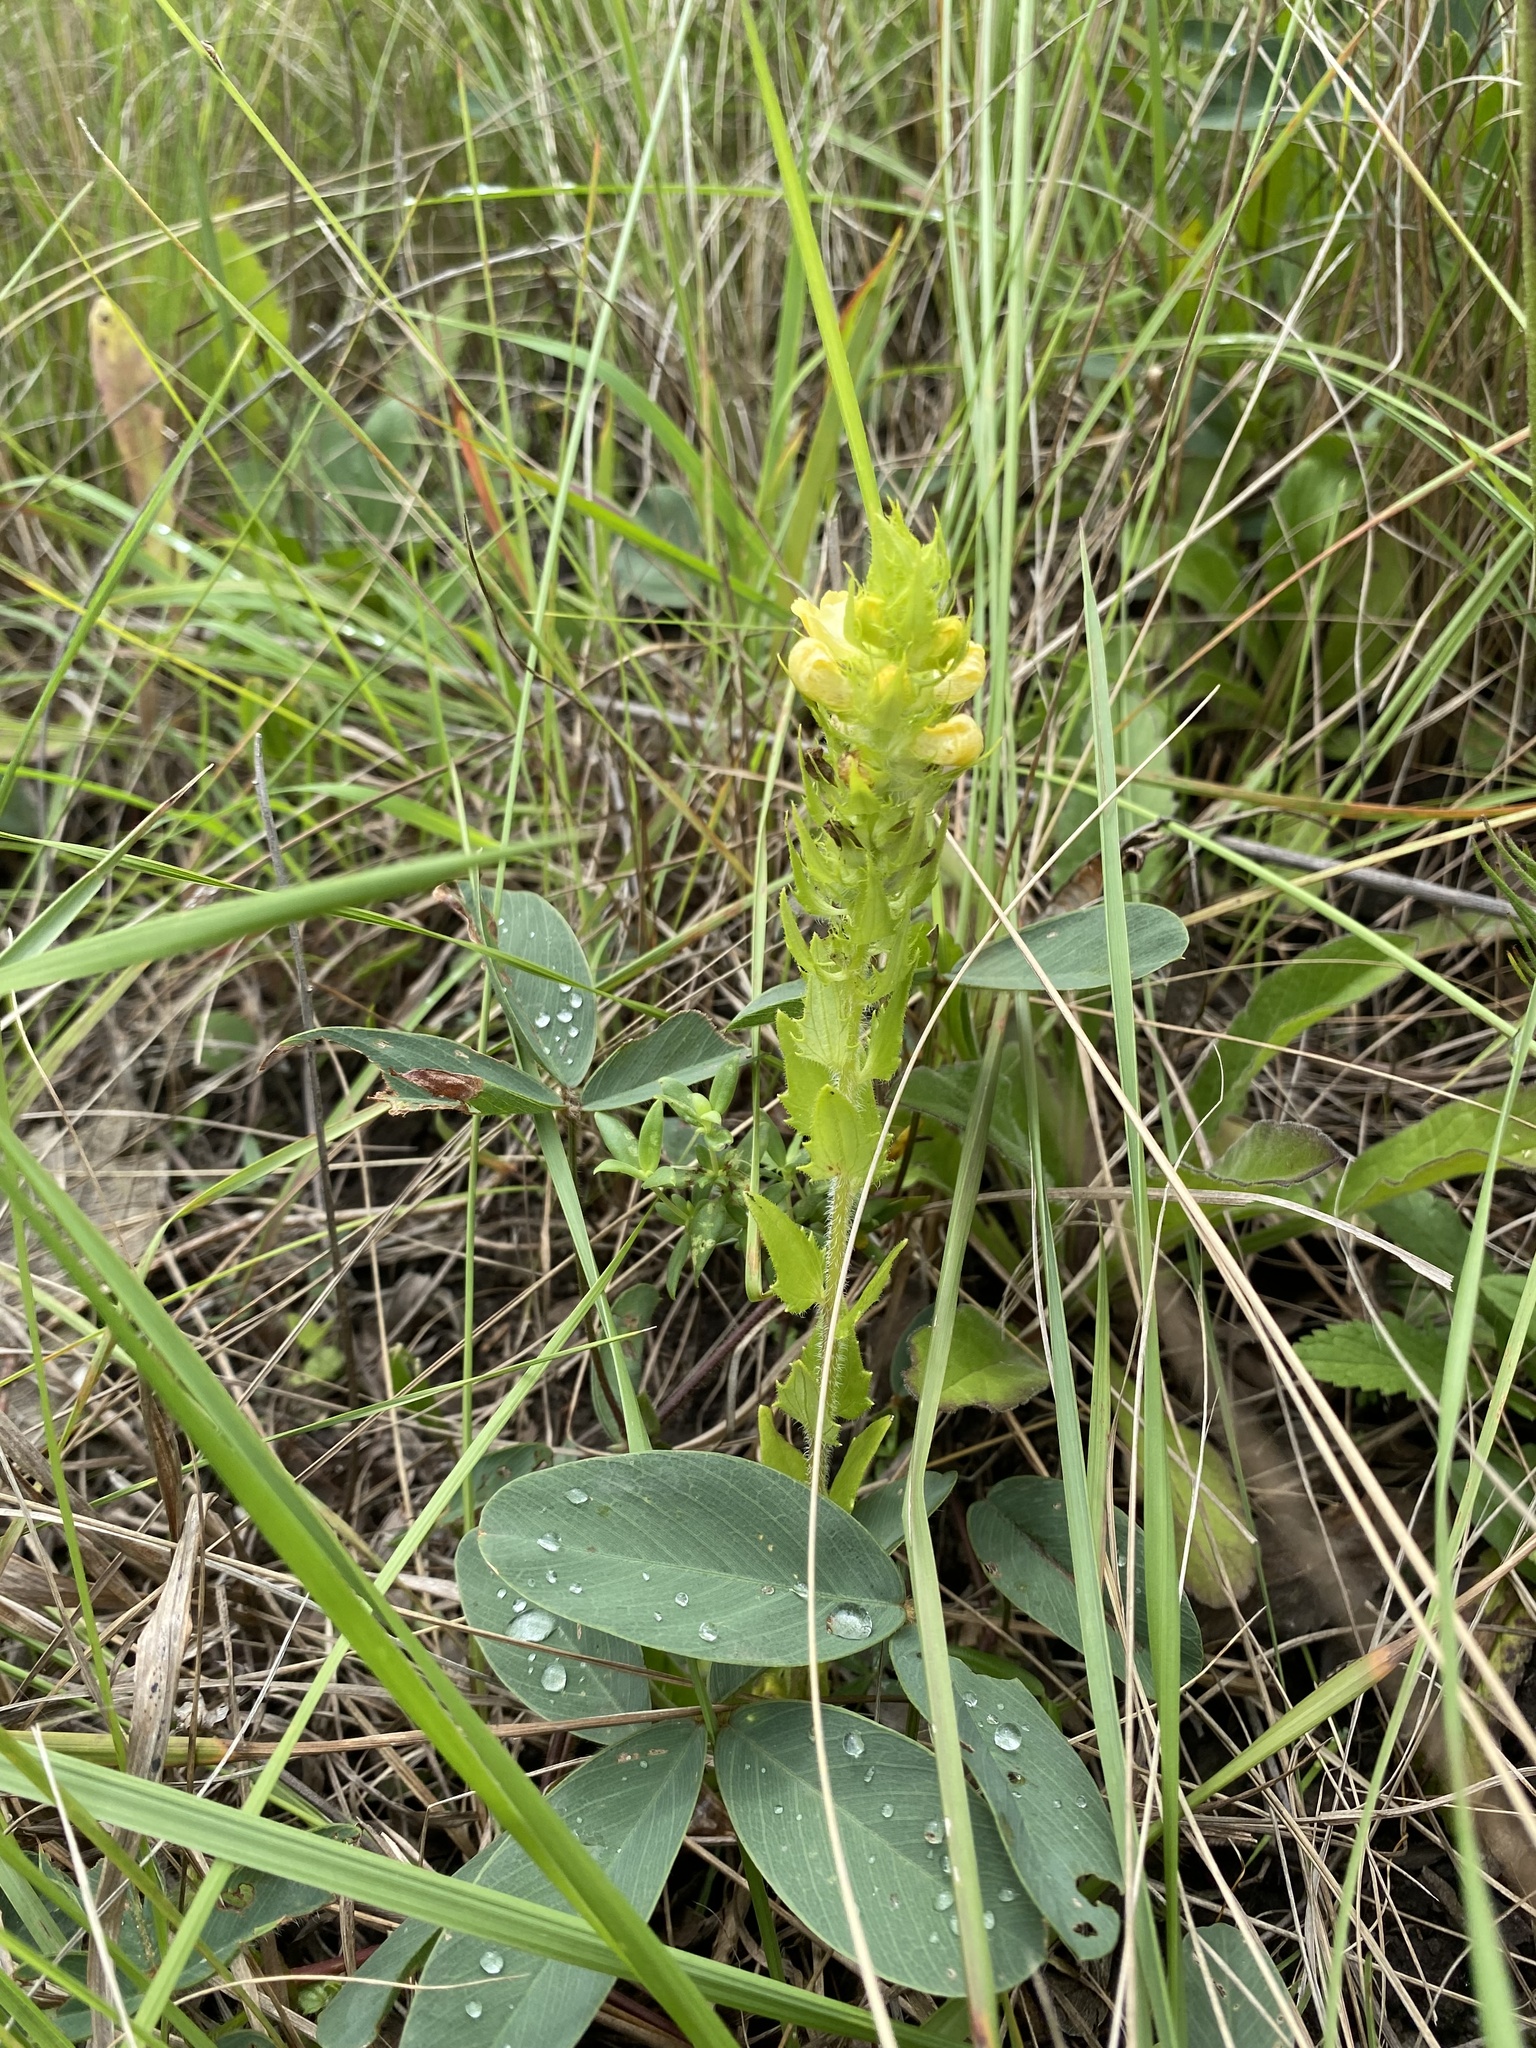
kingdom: Plantae
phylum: Tracheophyta
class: Magnoliopsida
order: Lamiales
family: Orobanchaceae
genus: Alectra
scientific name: Alectra sessiliflora
